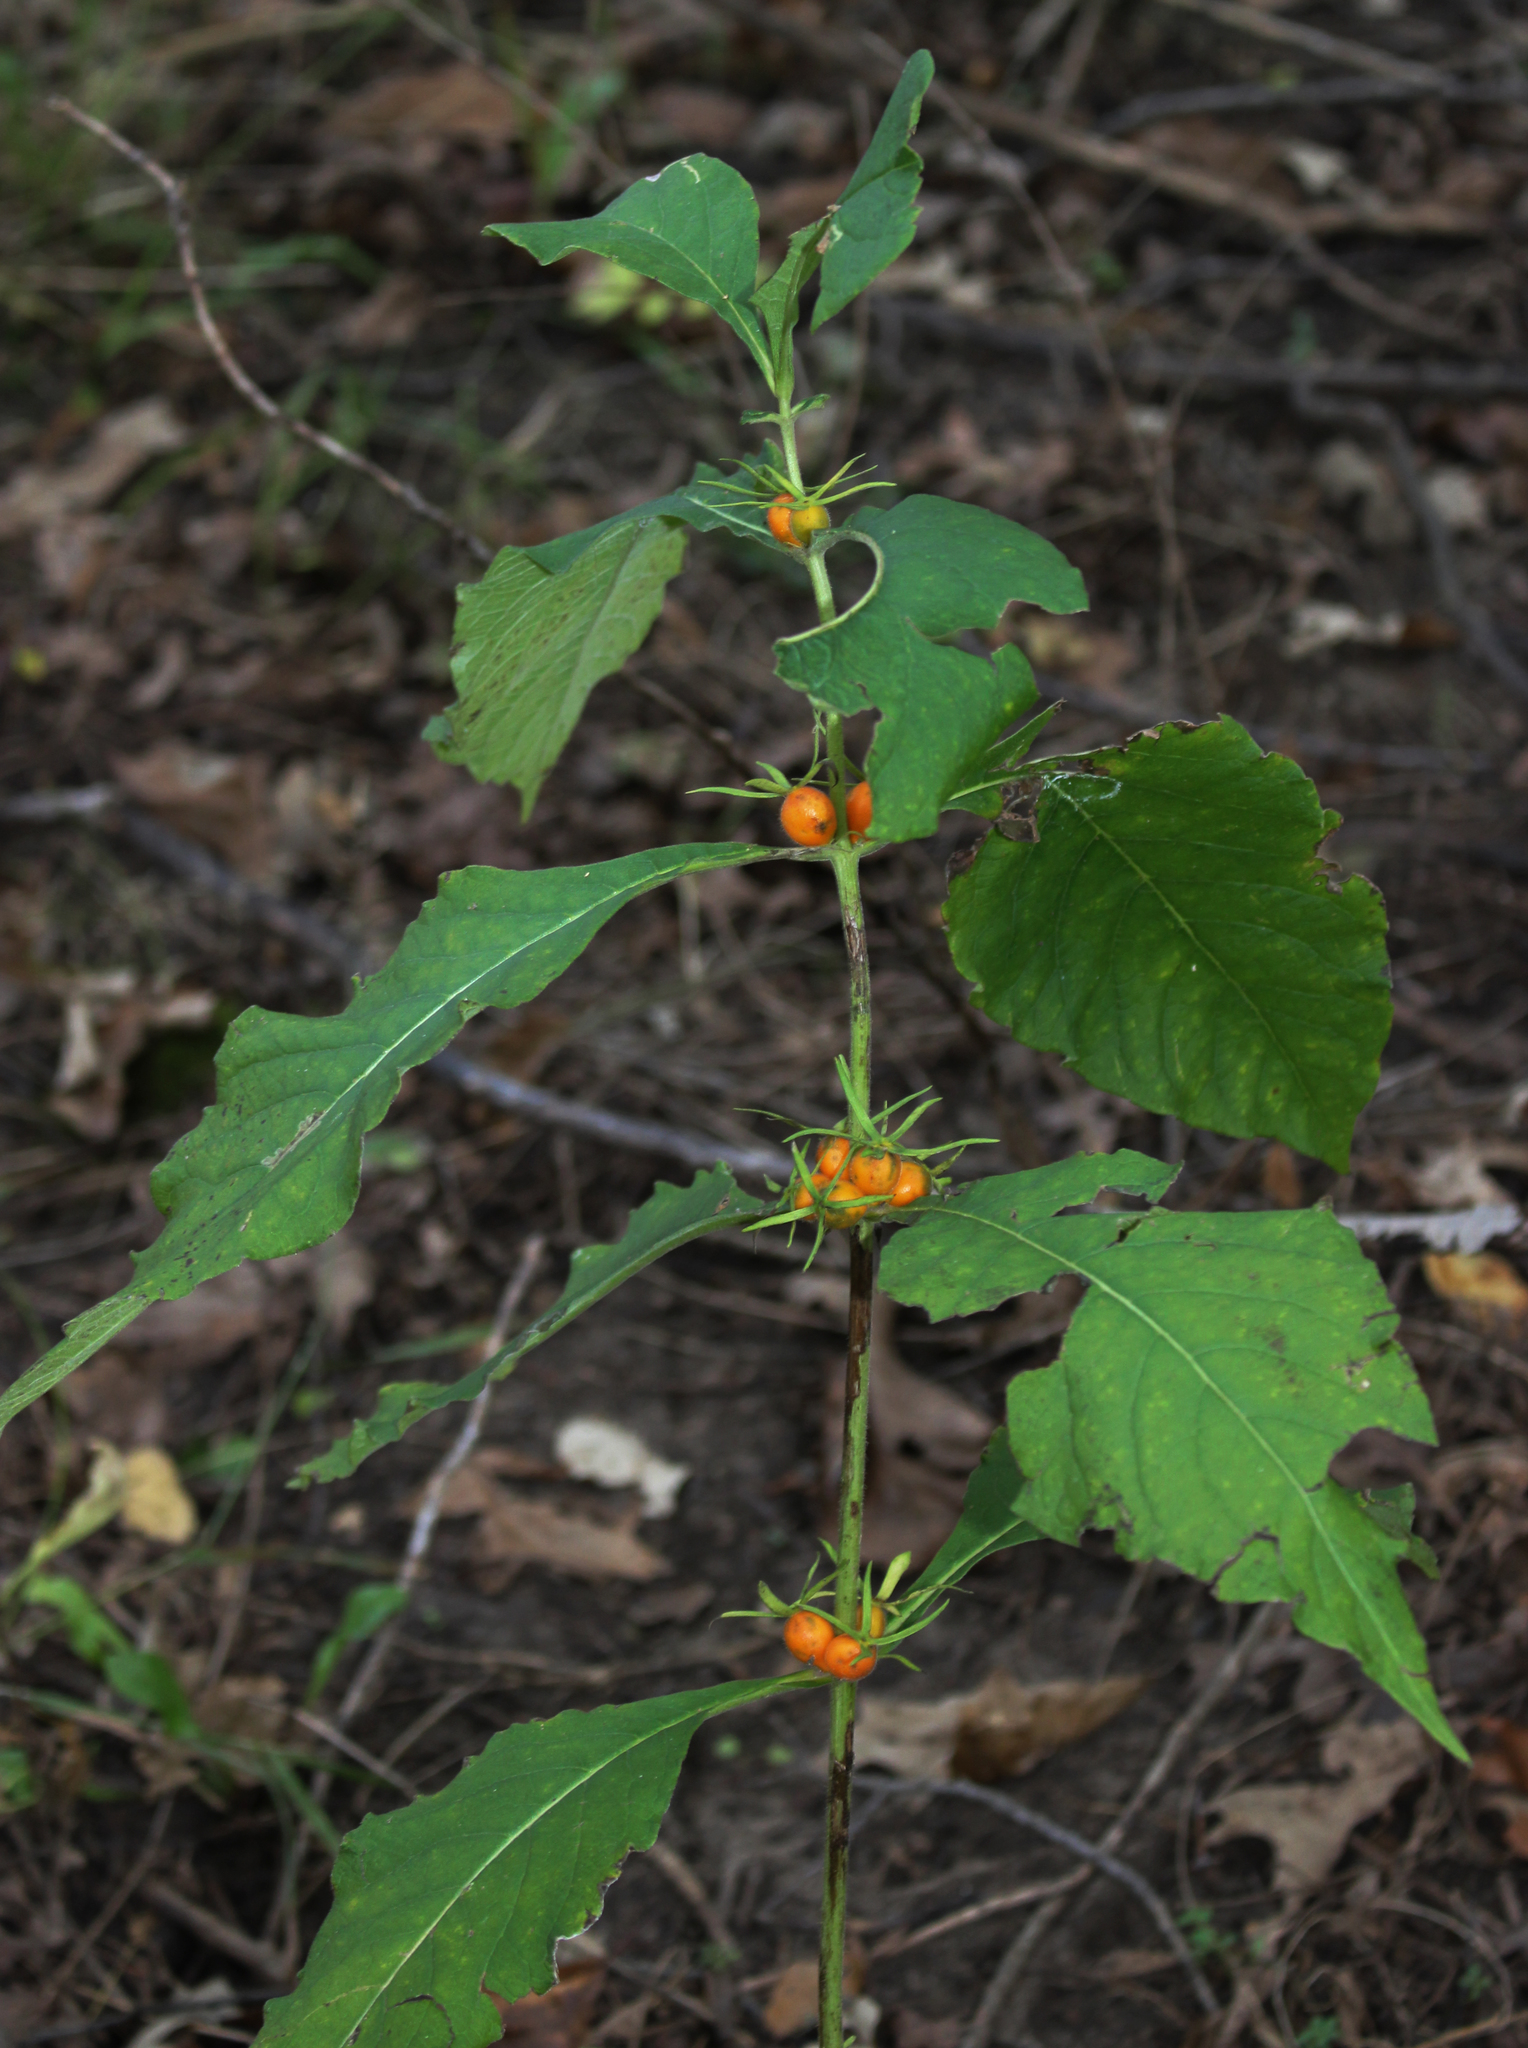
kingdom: Plantae
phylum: Tracheophyta
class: Magnoliopsida
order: Dipsacales
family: Caprifoliaceae
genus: Triosteum
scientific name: Triosteum aurantiacum
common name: Coffee tinker's-weed
